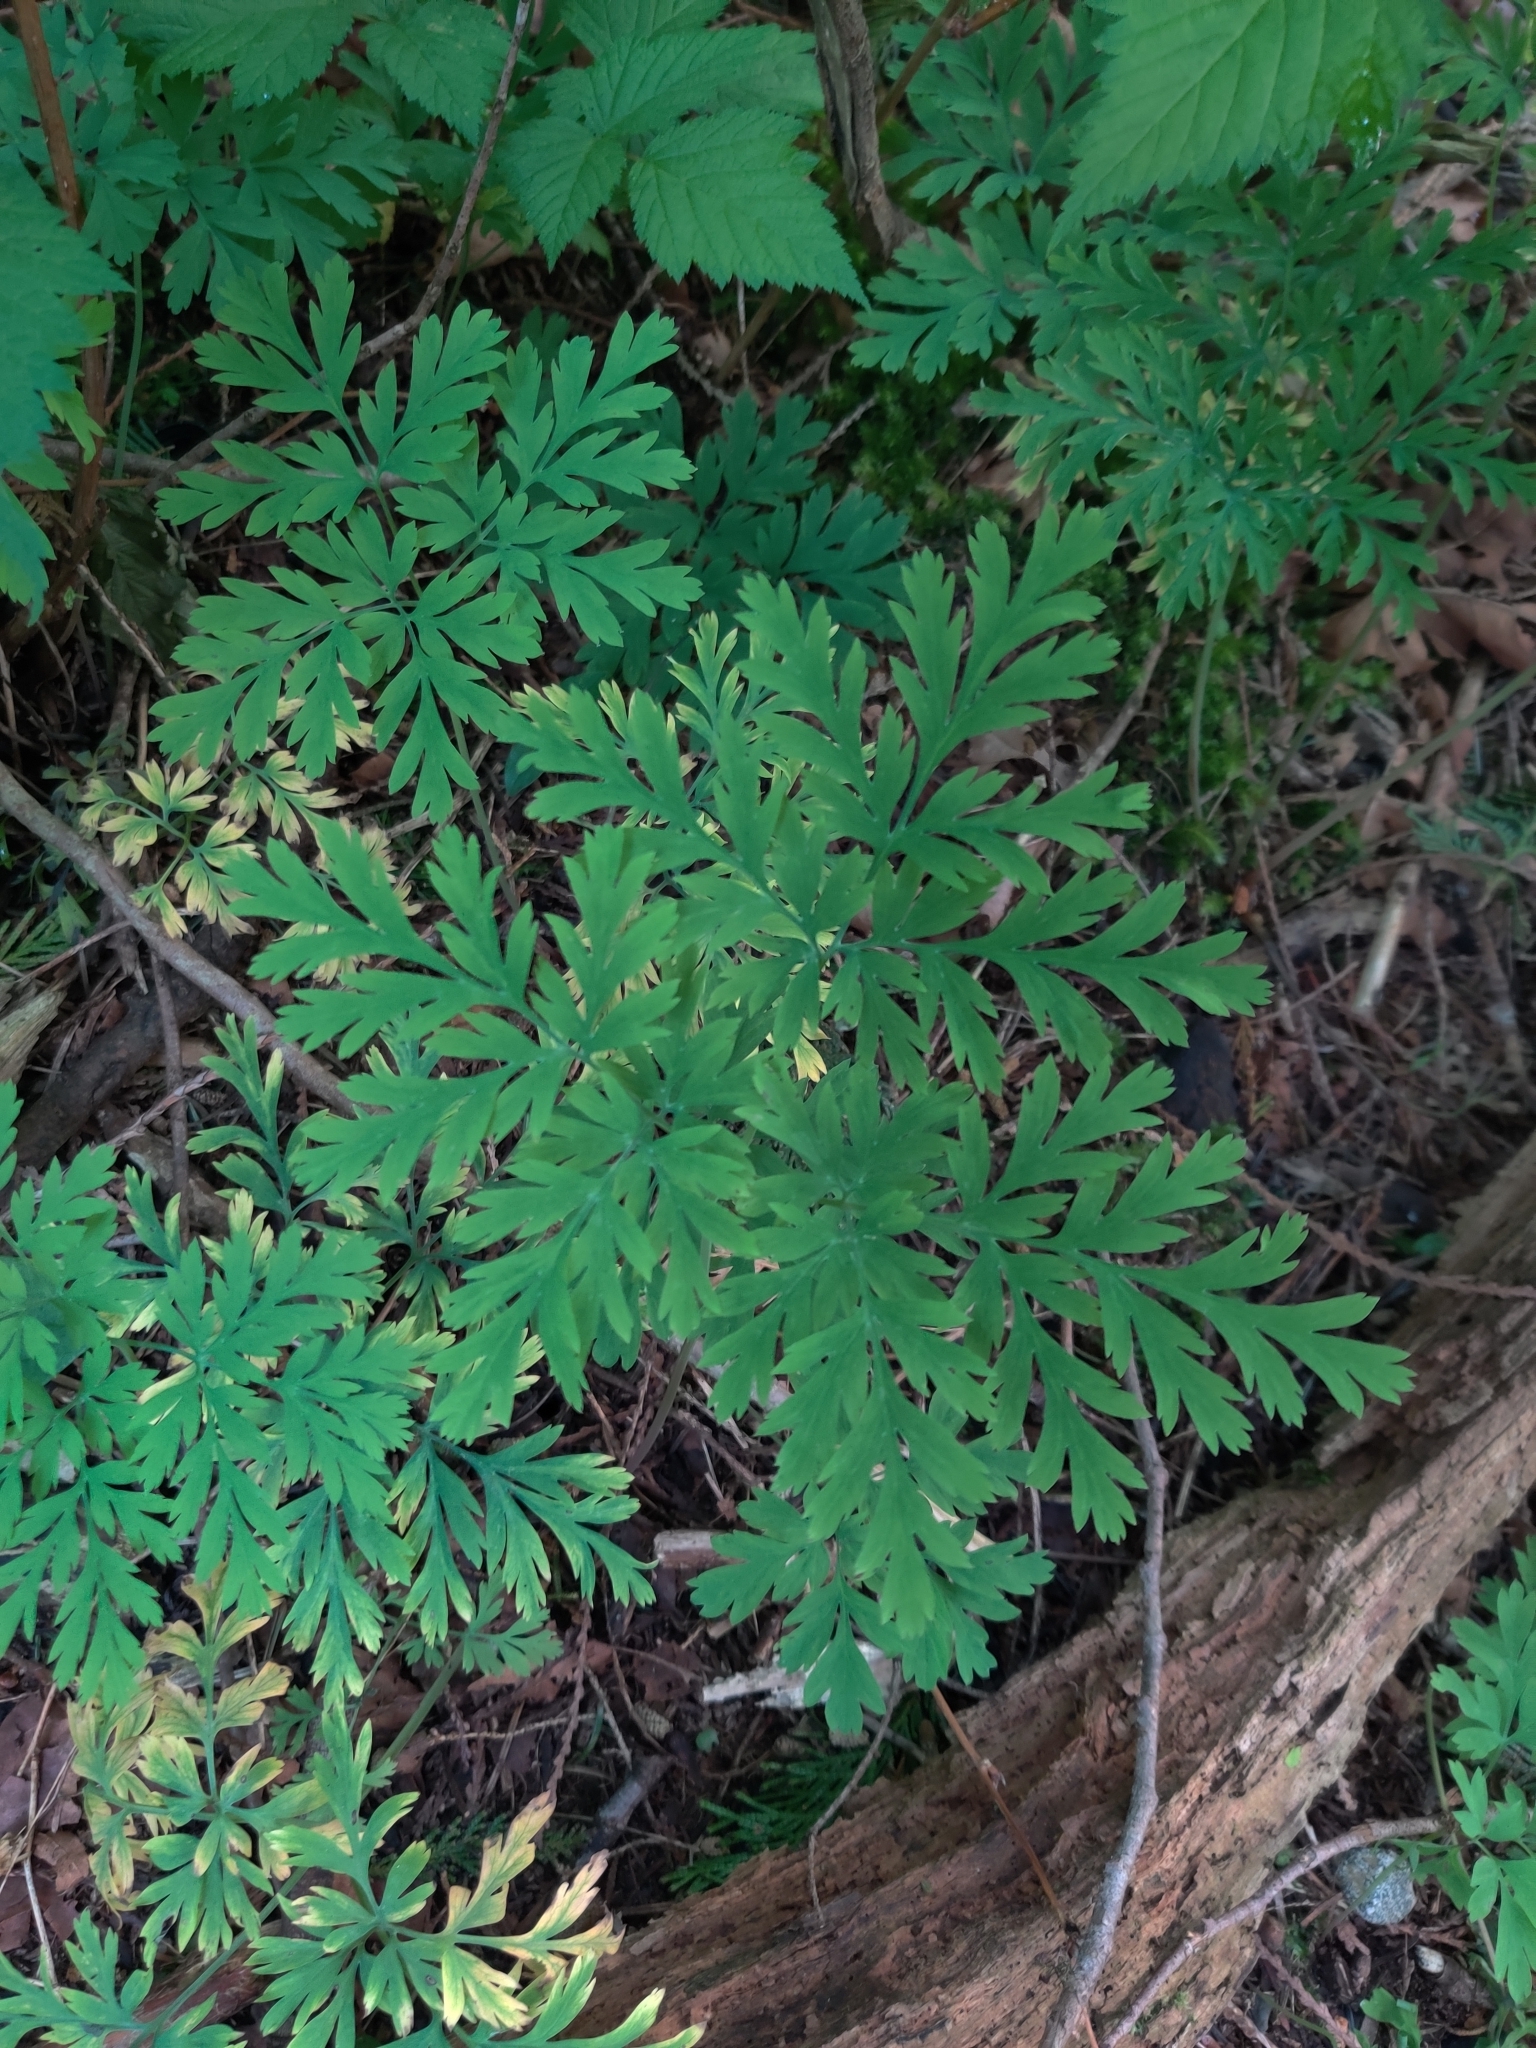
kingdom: Plantae
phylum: Tracheophyta
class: Magnoliopsida
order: Ranunculales
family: Papaveraceae
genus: Dicentra
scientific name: Dicentra formosa
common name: Bleeding-heart
